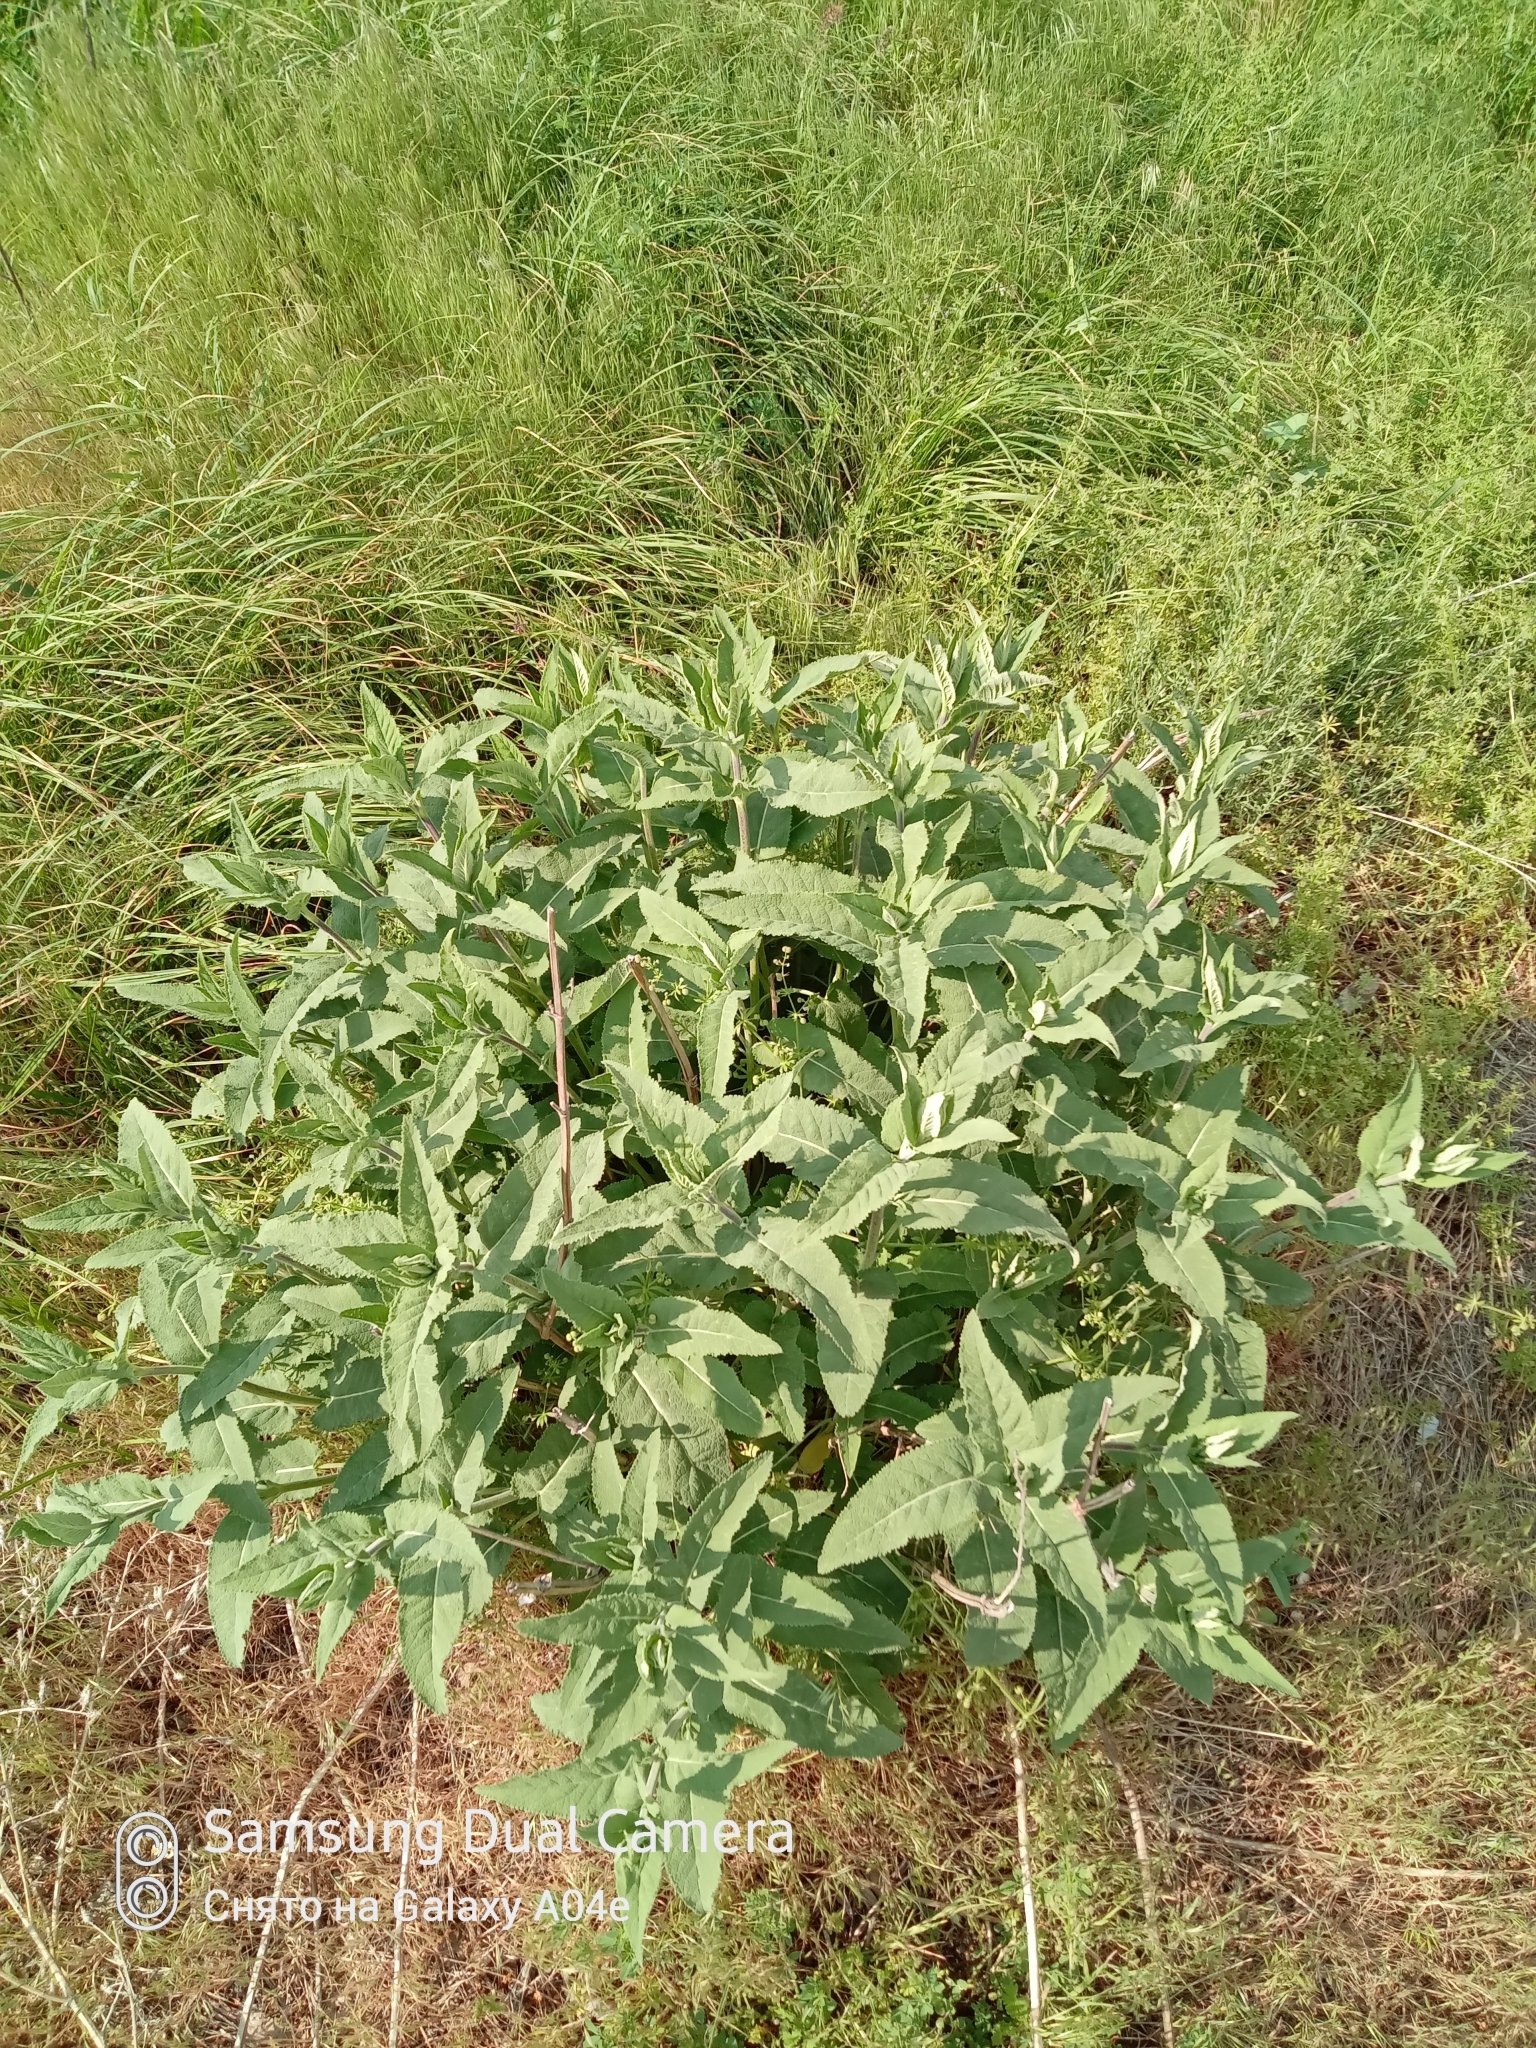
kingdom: Plantae
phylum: Tracheophyta
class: Magnoliopsida
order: Lamiales
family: Lamiaceae
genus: Salvia
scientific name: Salvia deserta
